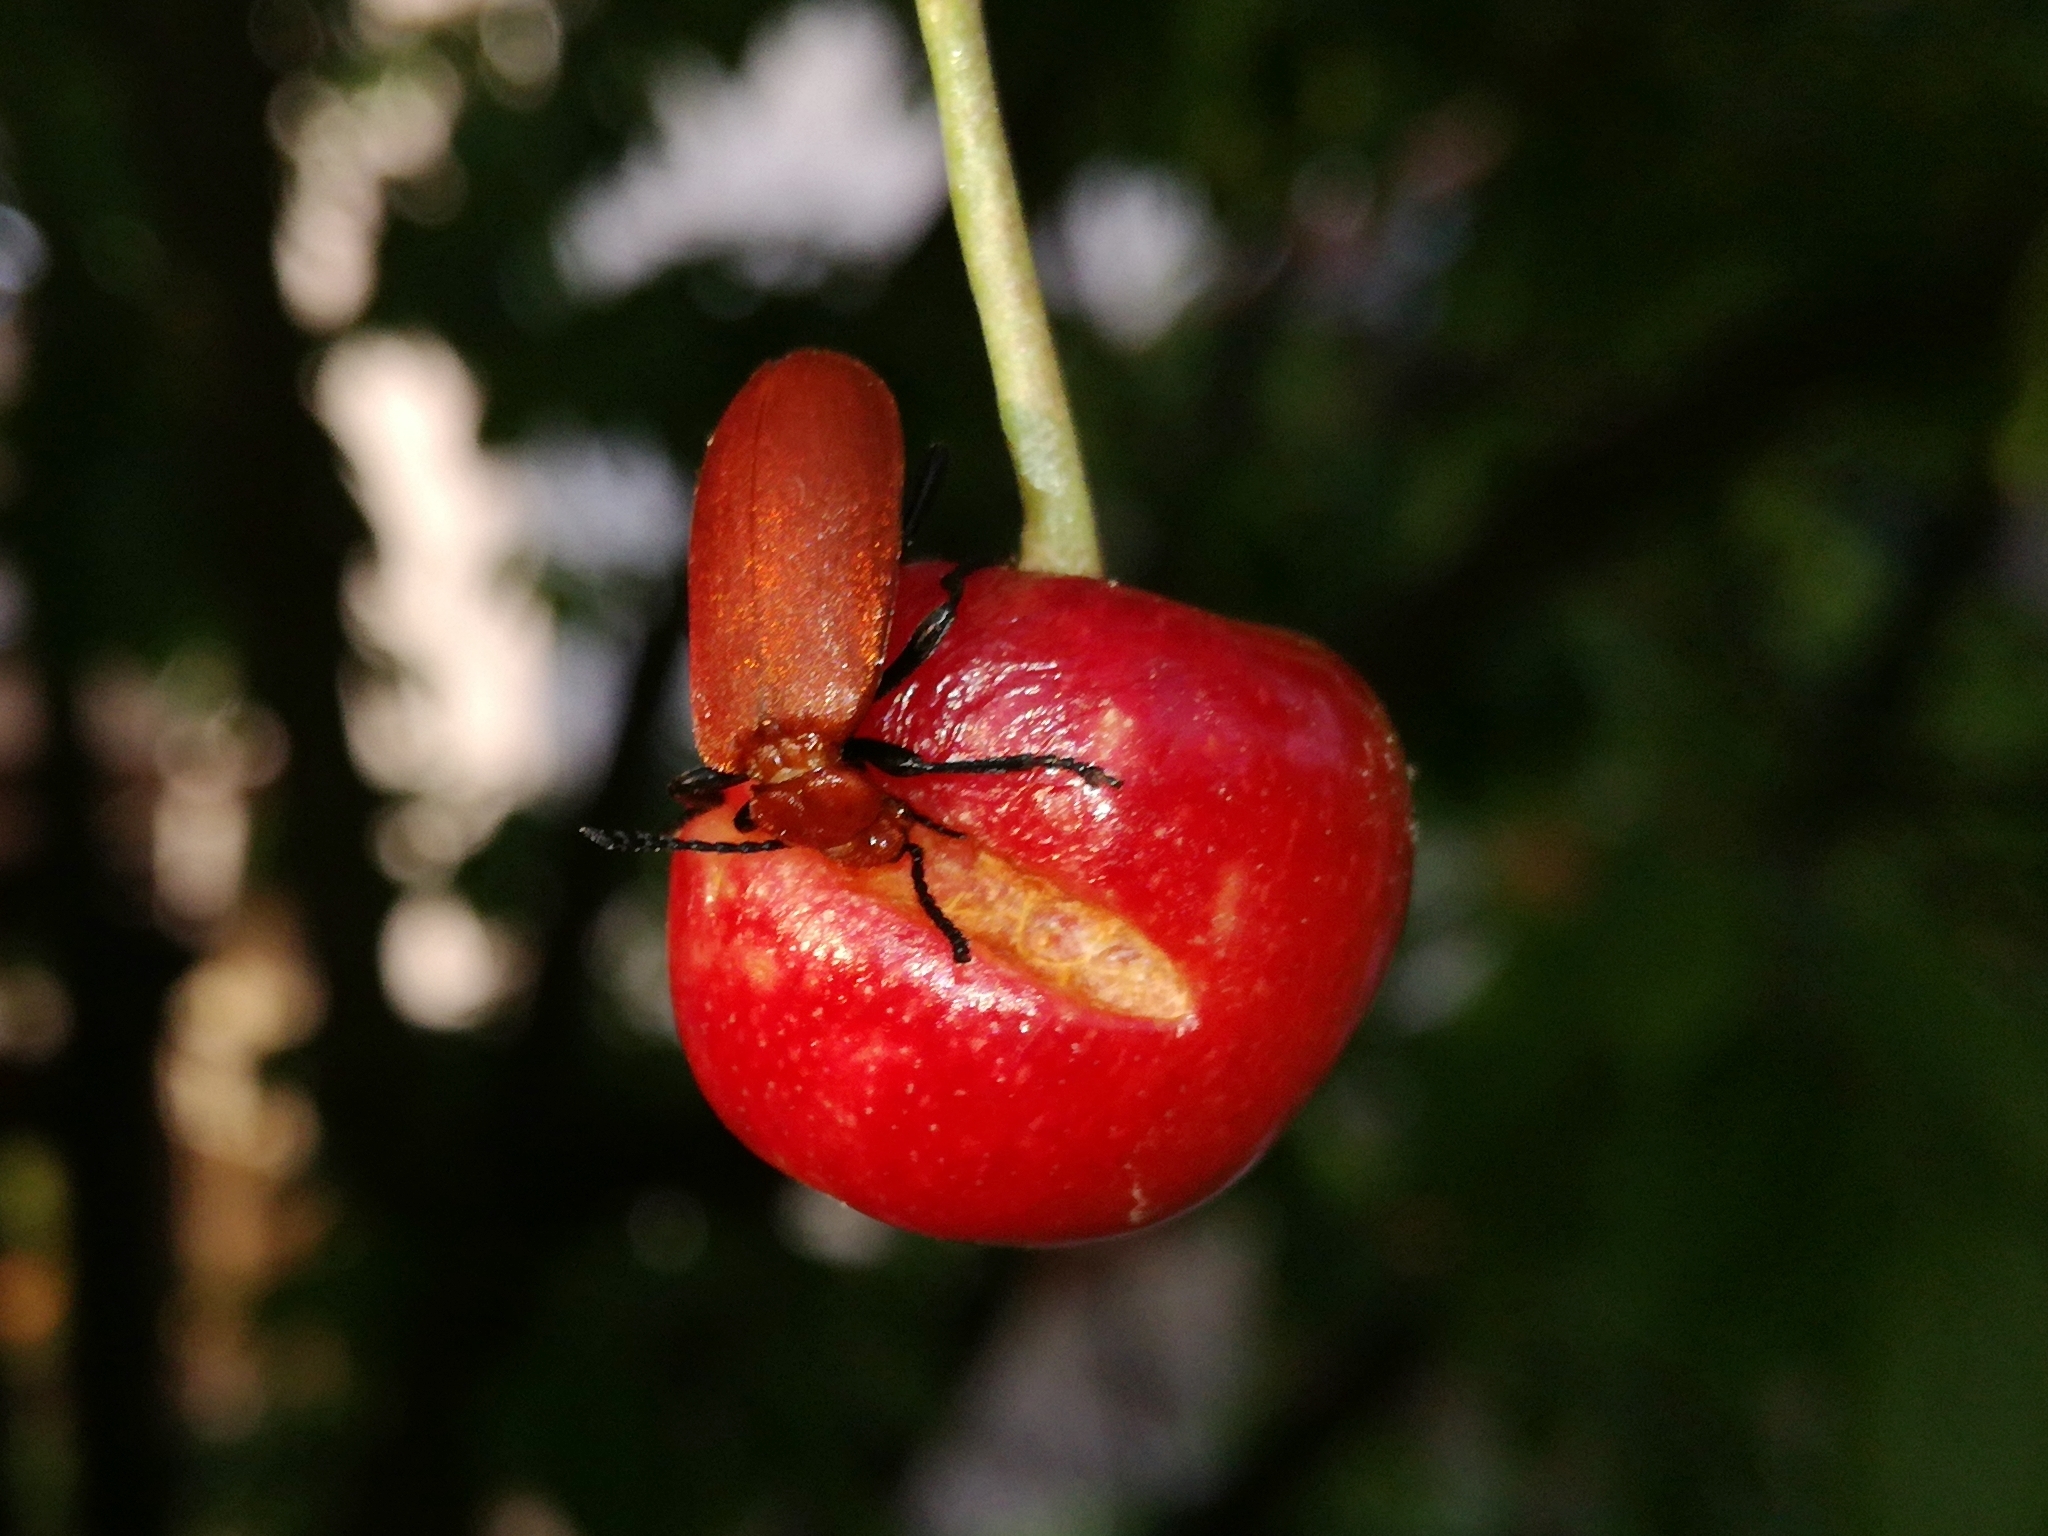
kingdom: Animalia
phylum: Arthropoda
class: Insecta
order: Coleoptera
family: Pyrochroidae
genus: Pyrochroa
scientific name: Pyrochroa serraticornis
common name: Red-headed cardinal beetle
